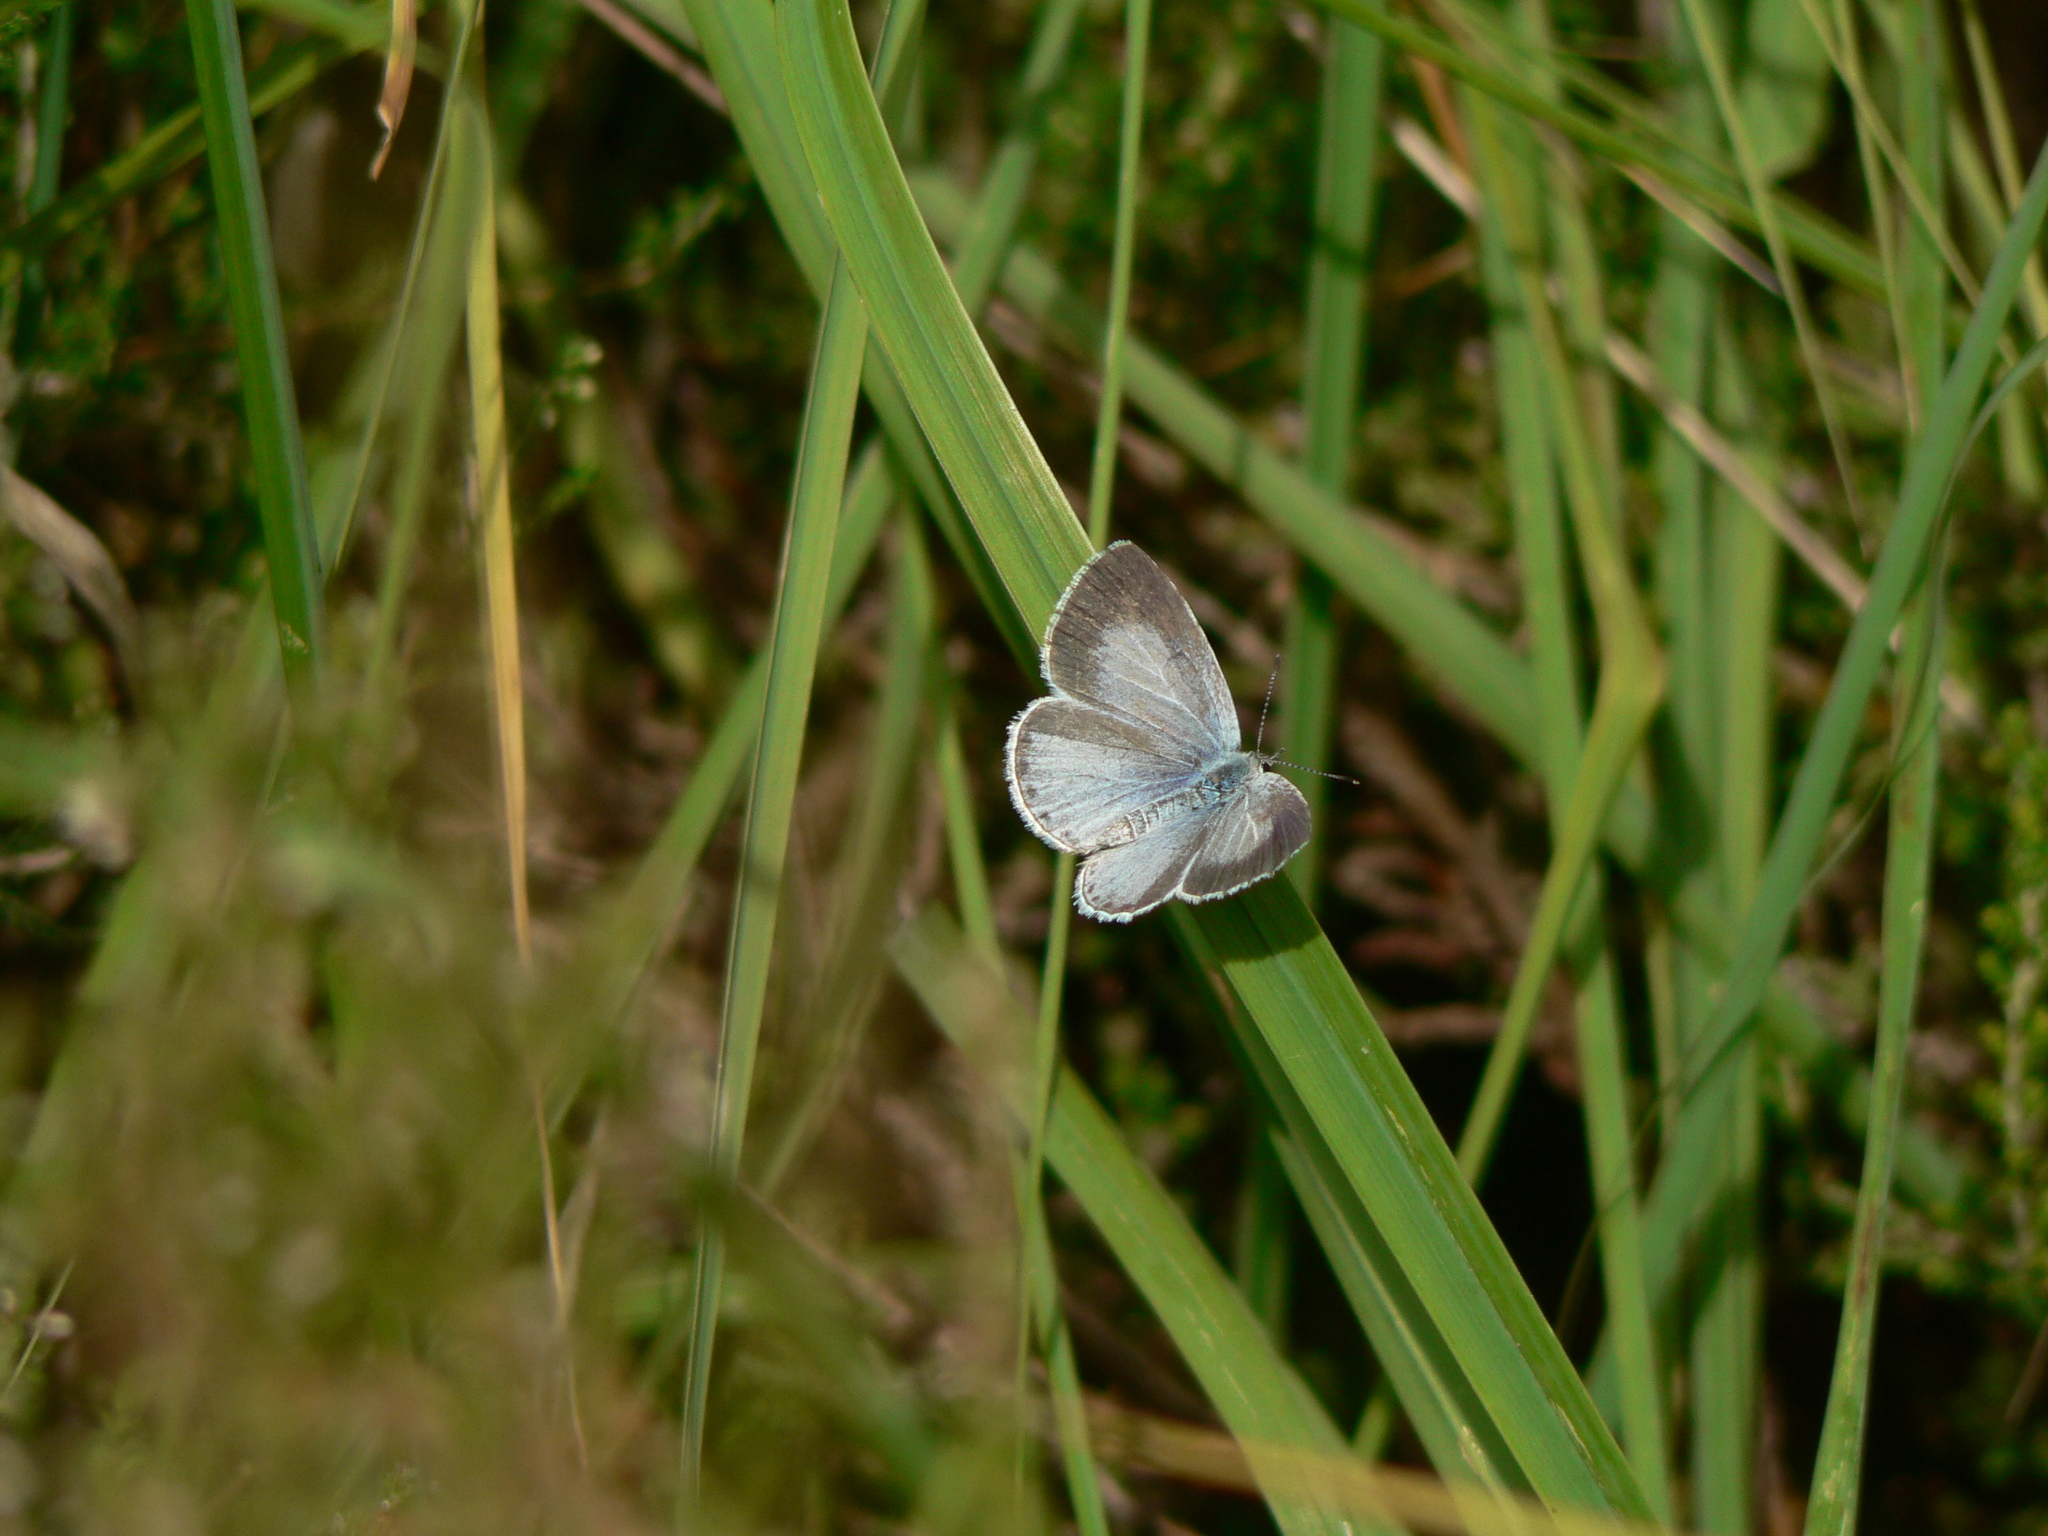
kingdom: Animalia
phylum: Arthropoda
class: Insecta
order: Lepidoptera
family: Lycaenidae
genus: Celastrina
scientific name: Celastrina argiolus
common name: Holly blue
